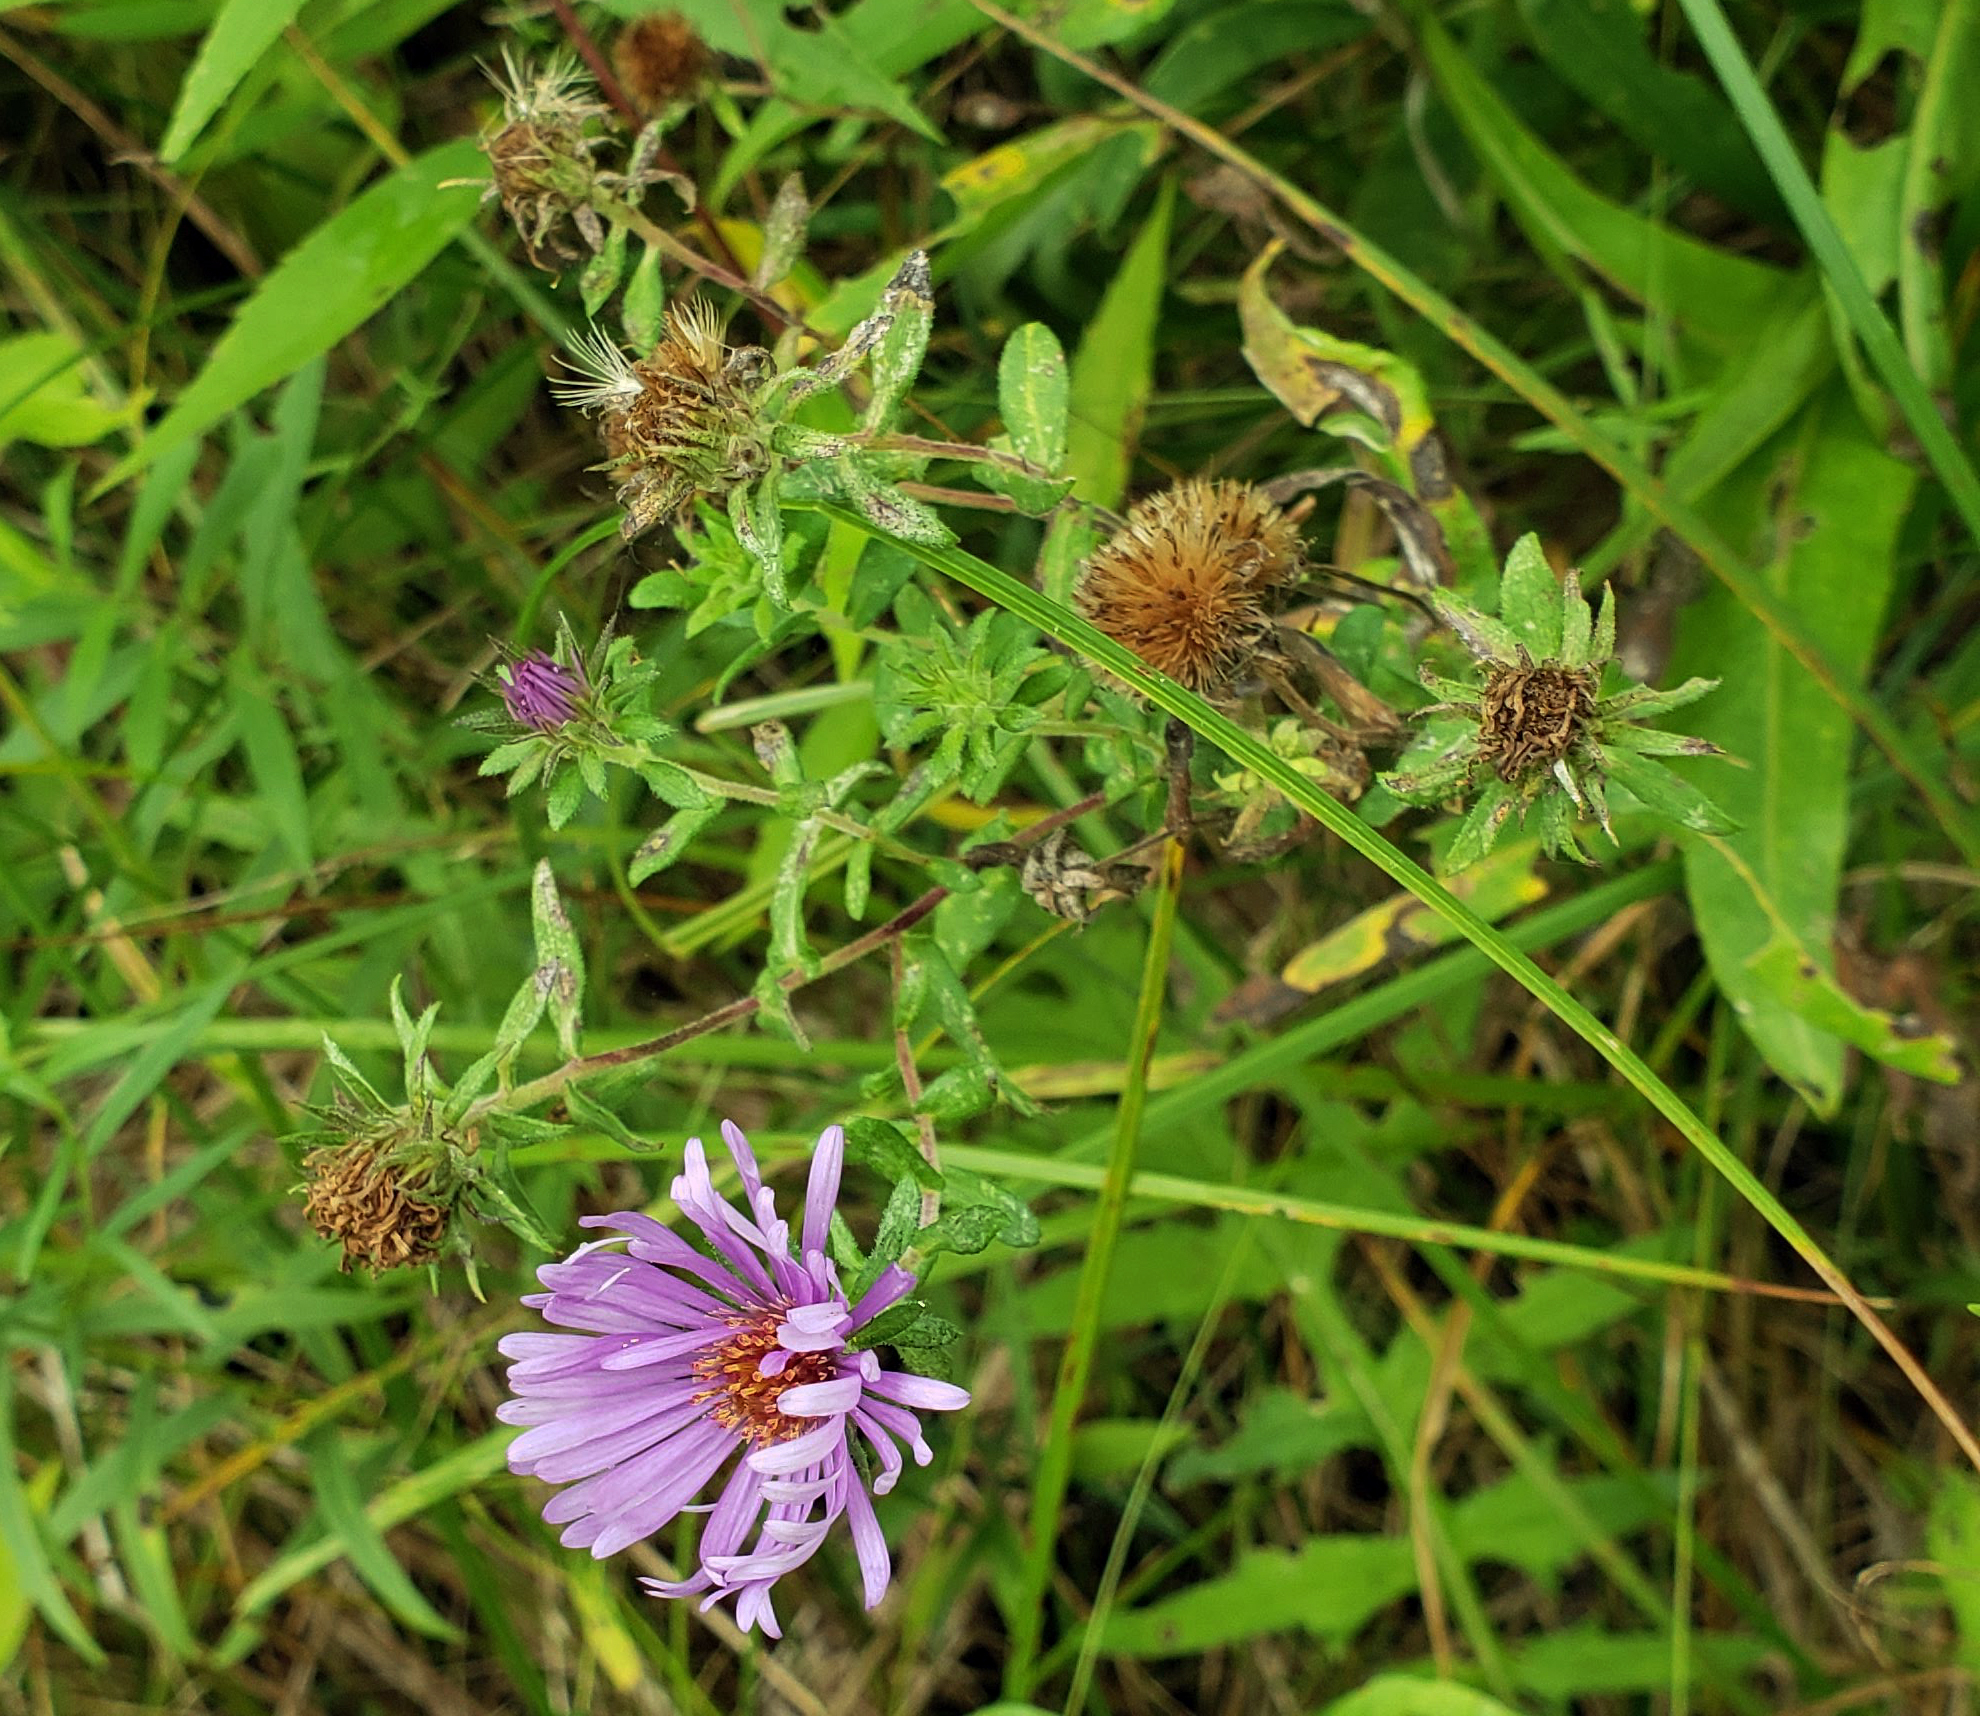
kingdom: Plantae
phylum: Tracheophyta
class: Magnoliopsida
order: Asterales
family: Asteraceae
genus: Symphyotrichum
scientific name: Symphyotrichum novae-angliae
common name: Michaelmas daisy
